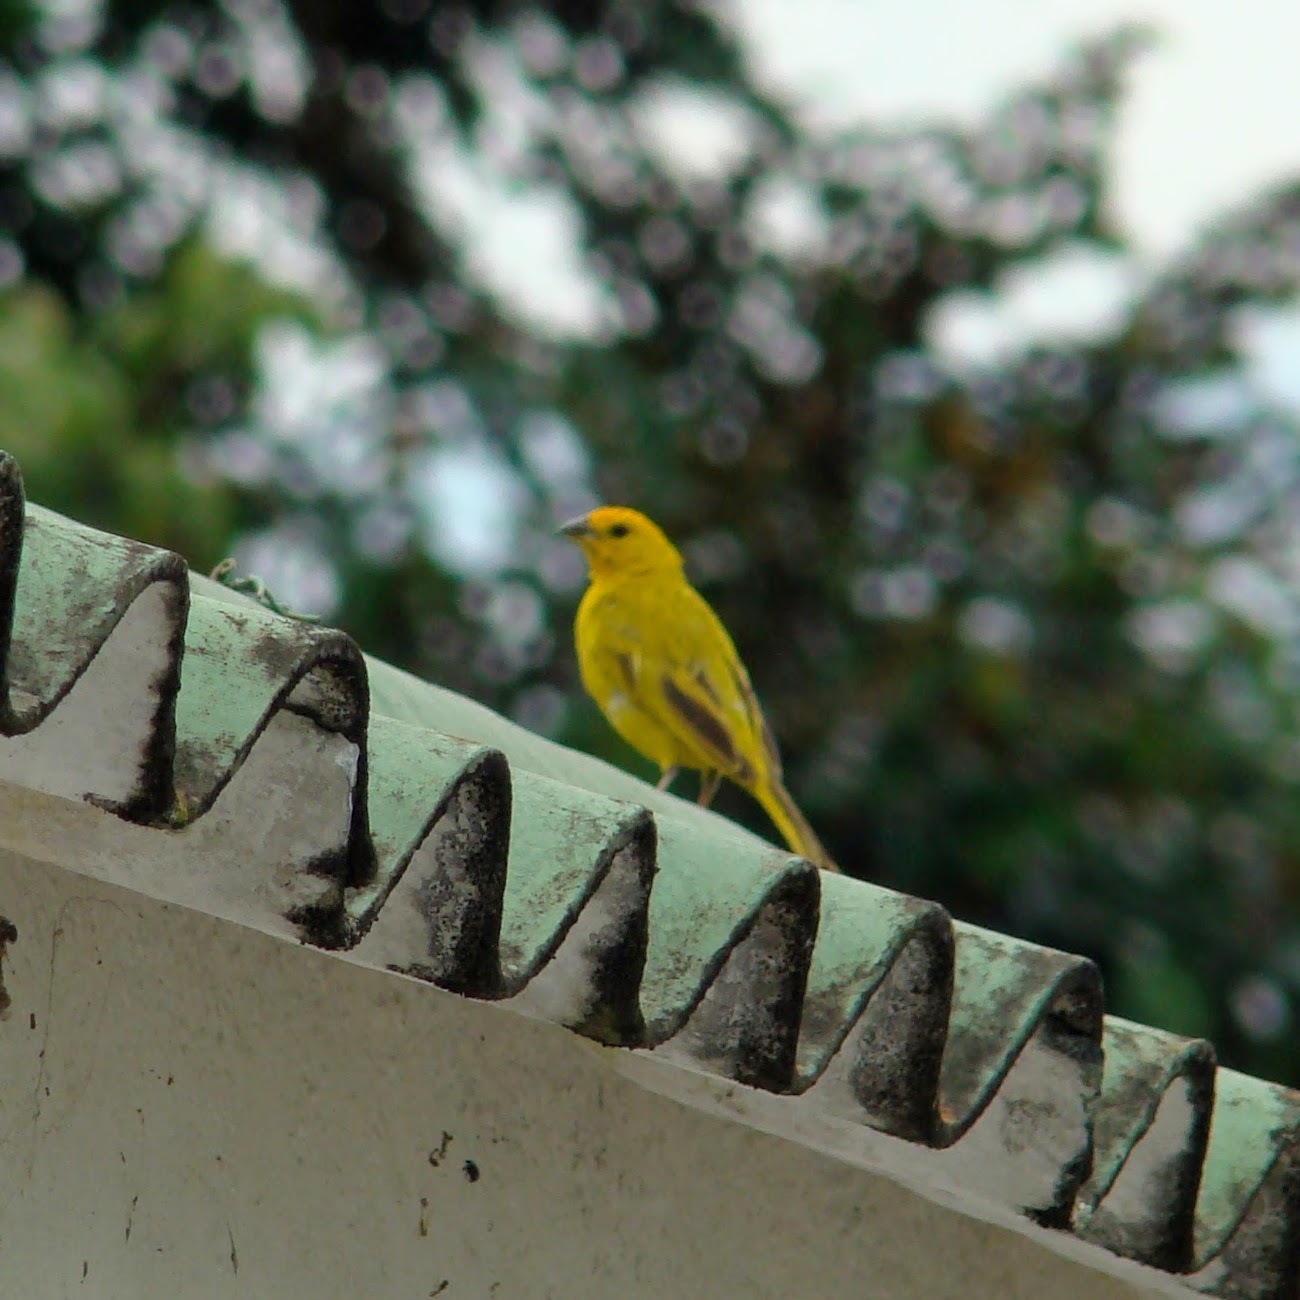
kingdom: Animalia
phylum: Chordata
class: Aves
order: Passeriformes
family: Thraupidae
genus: Sicalis
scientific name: Sicalis flaveola
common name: Saffron finch
